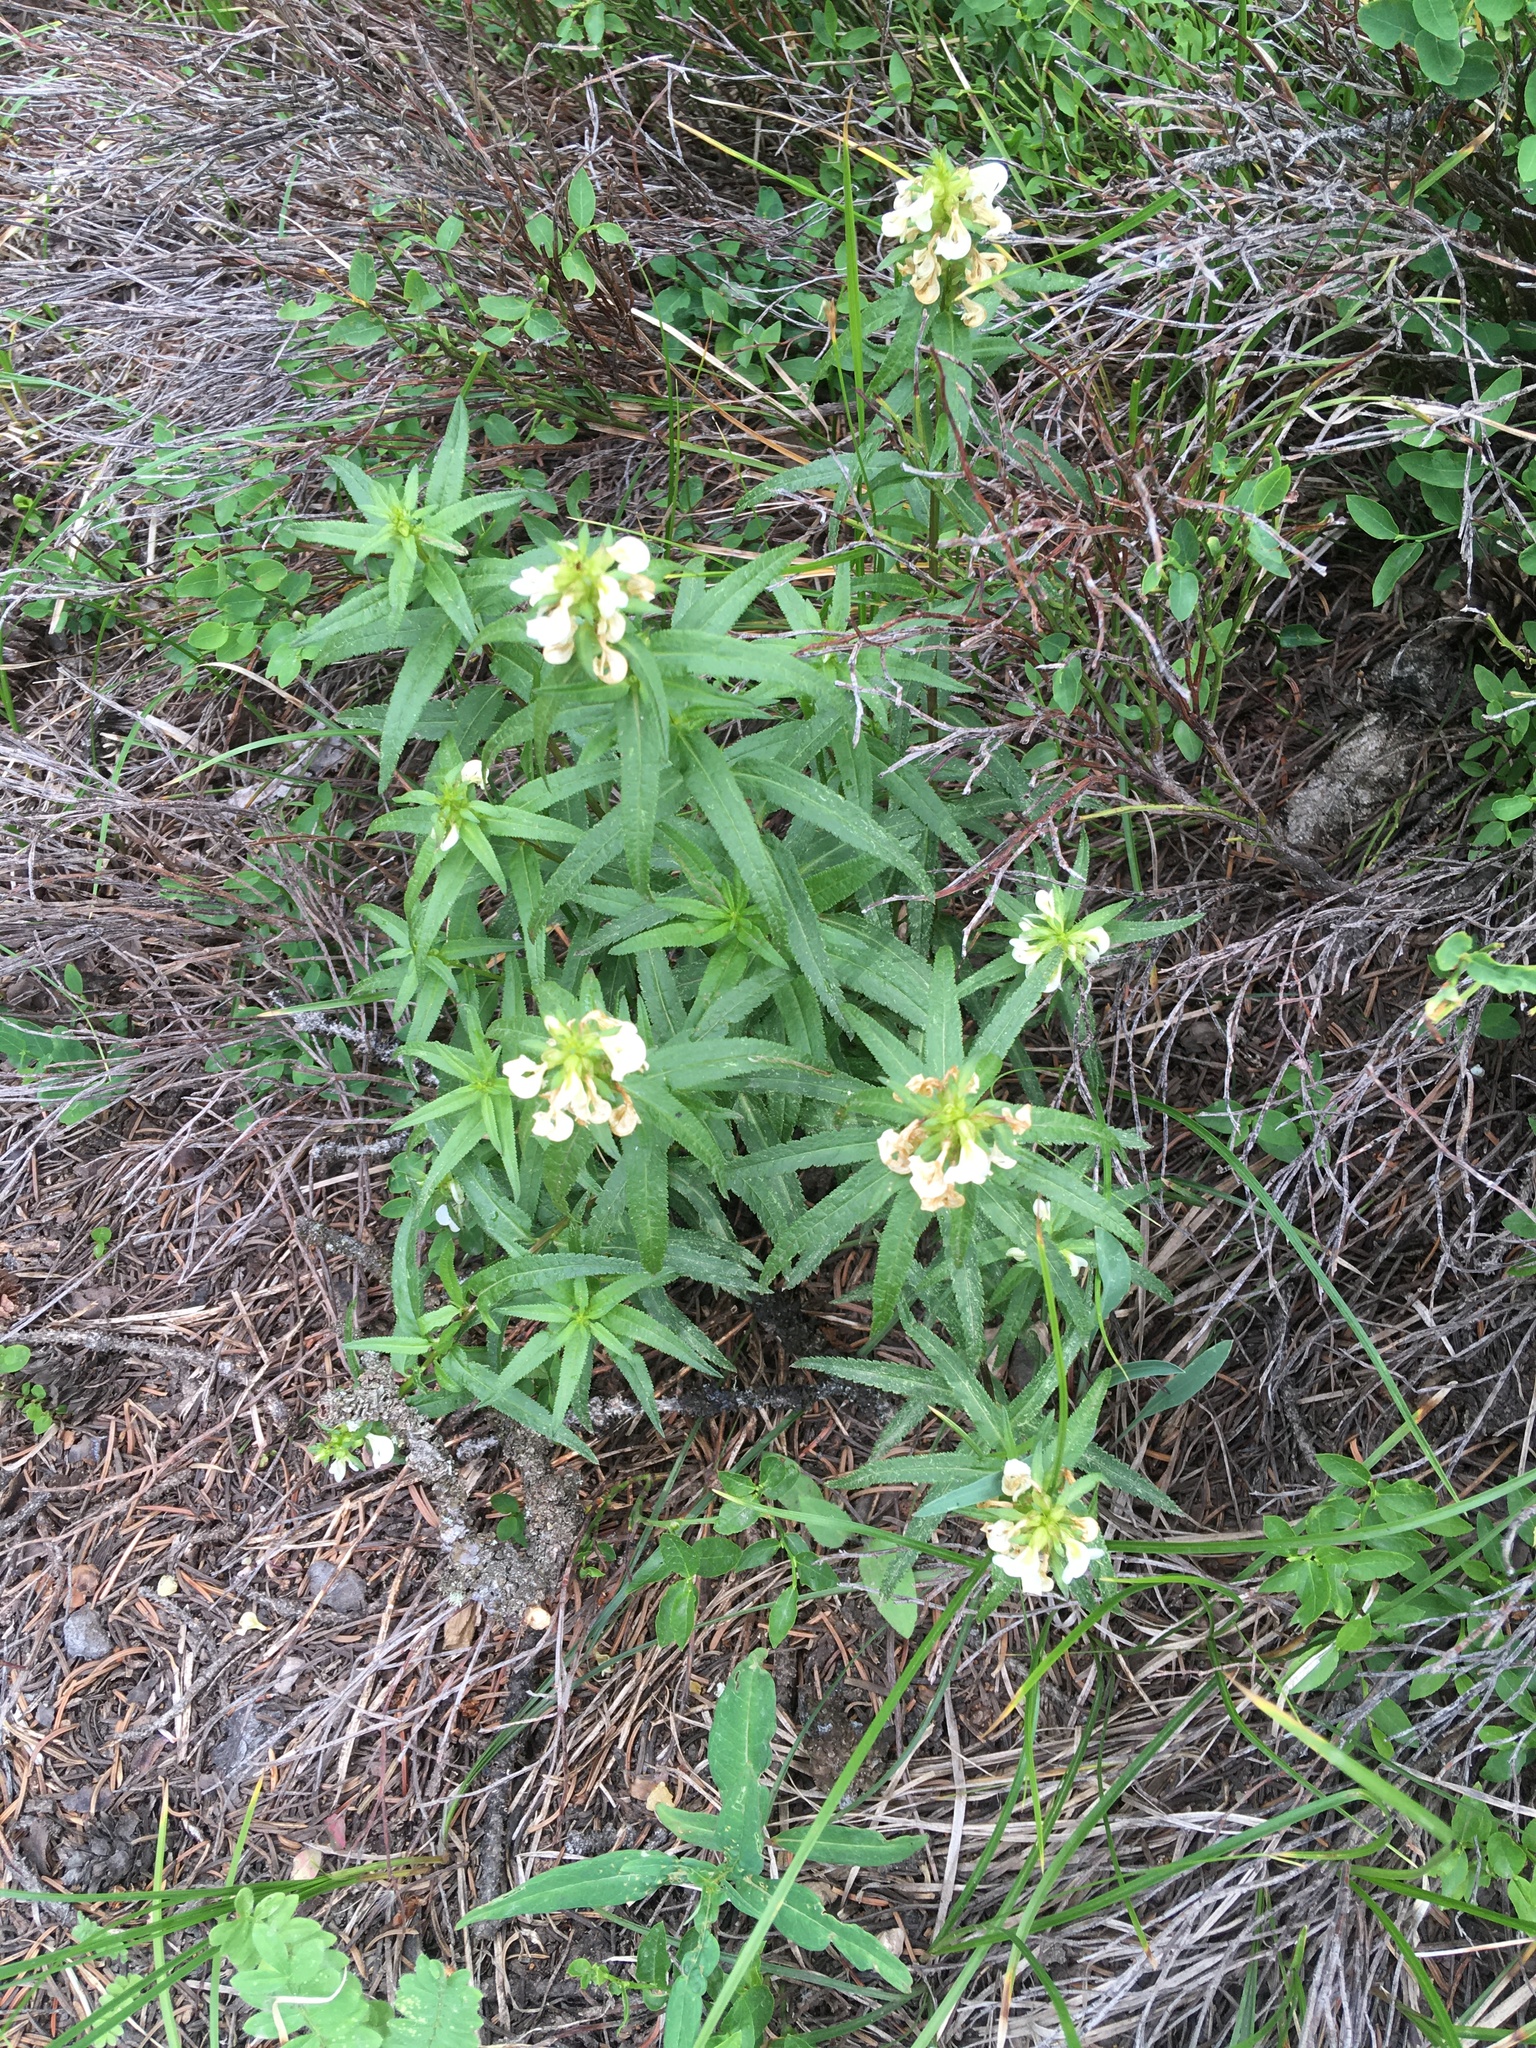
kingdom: Plantae
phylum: Tracheophyta
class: Magnoliopsida
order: Lamiales
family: Orobanchaceae
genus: Pedicularis
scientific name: Pedicularis racemosa
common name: Leafy lousewort
